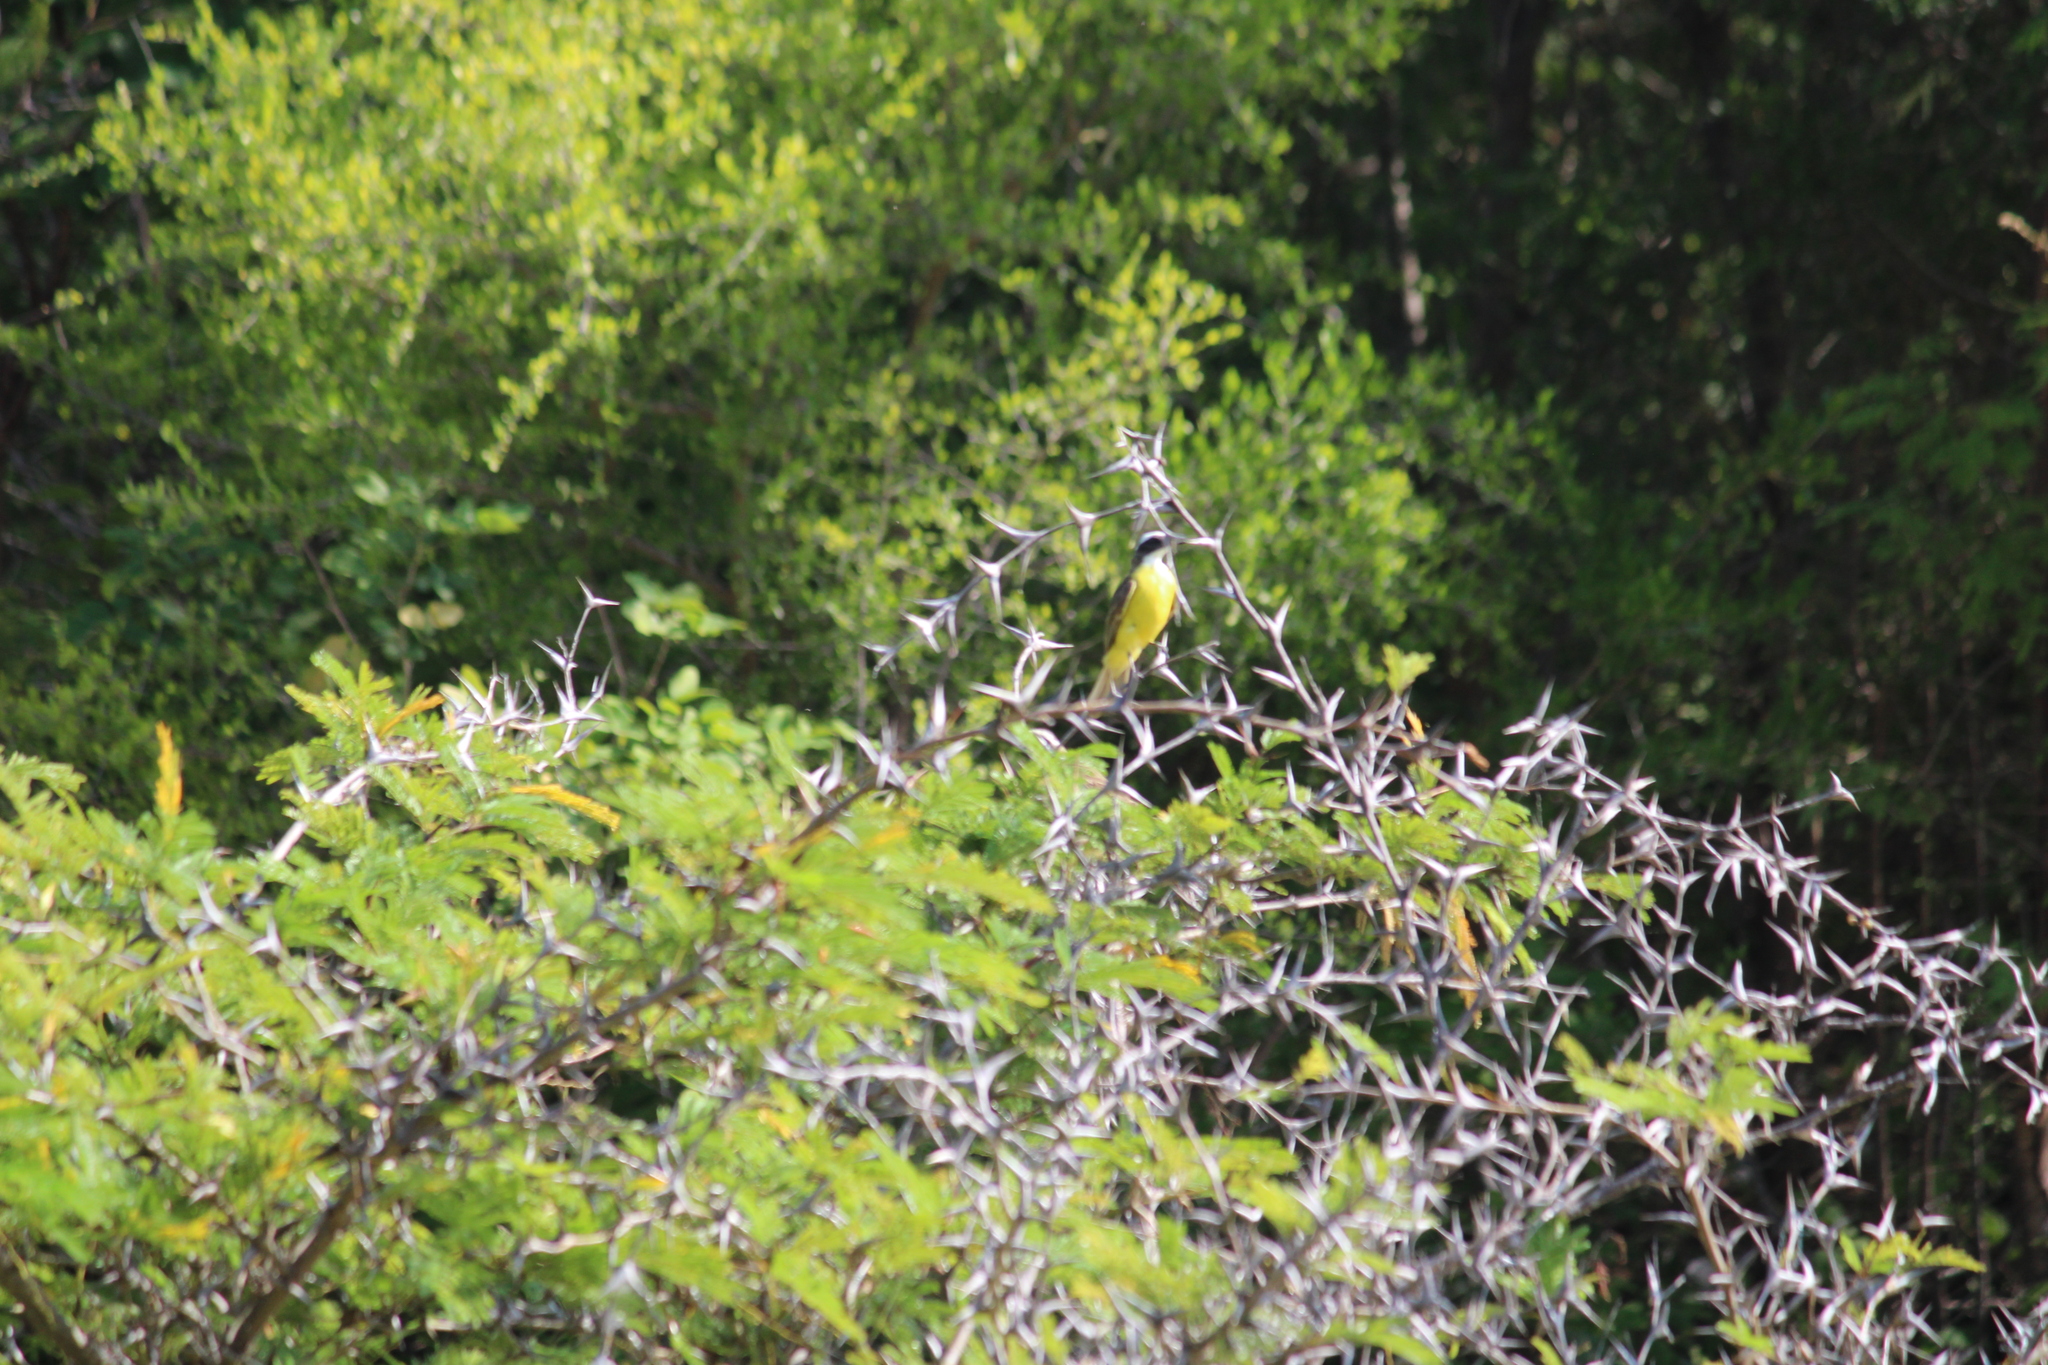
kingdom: Animalia
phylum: Chordata
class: Aves
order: Passeriformes
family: Tyrannidae
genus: Myiozetetes
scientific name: Myiozetetes similis
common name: Social flycatcher
